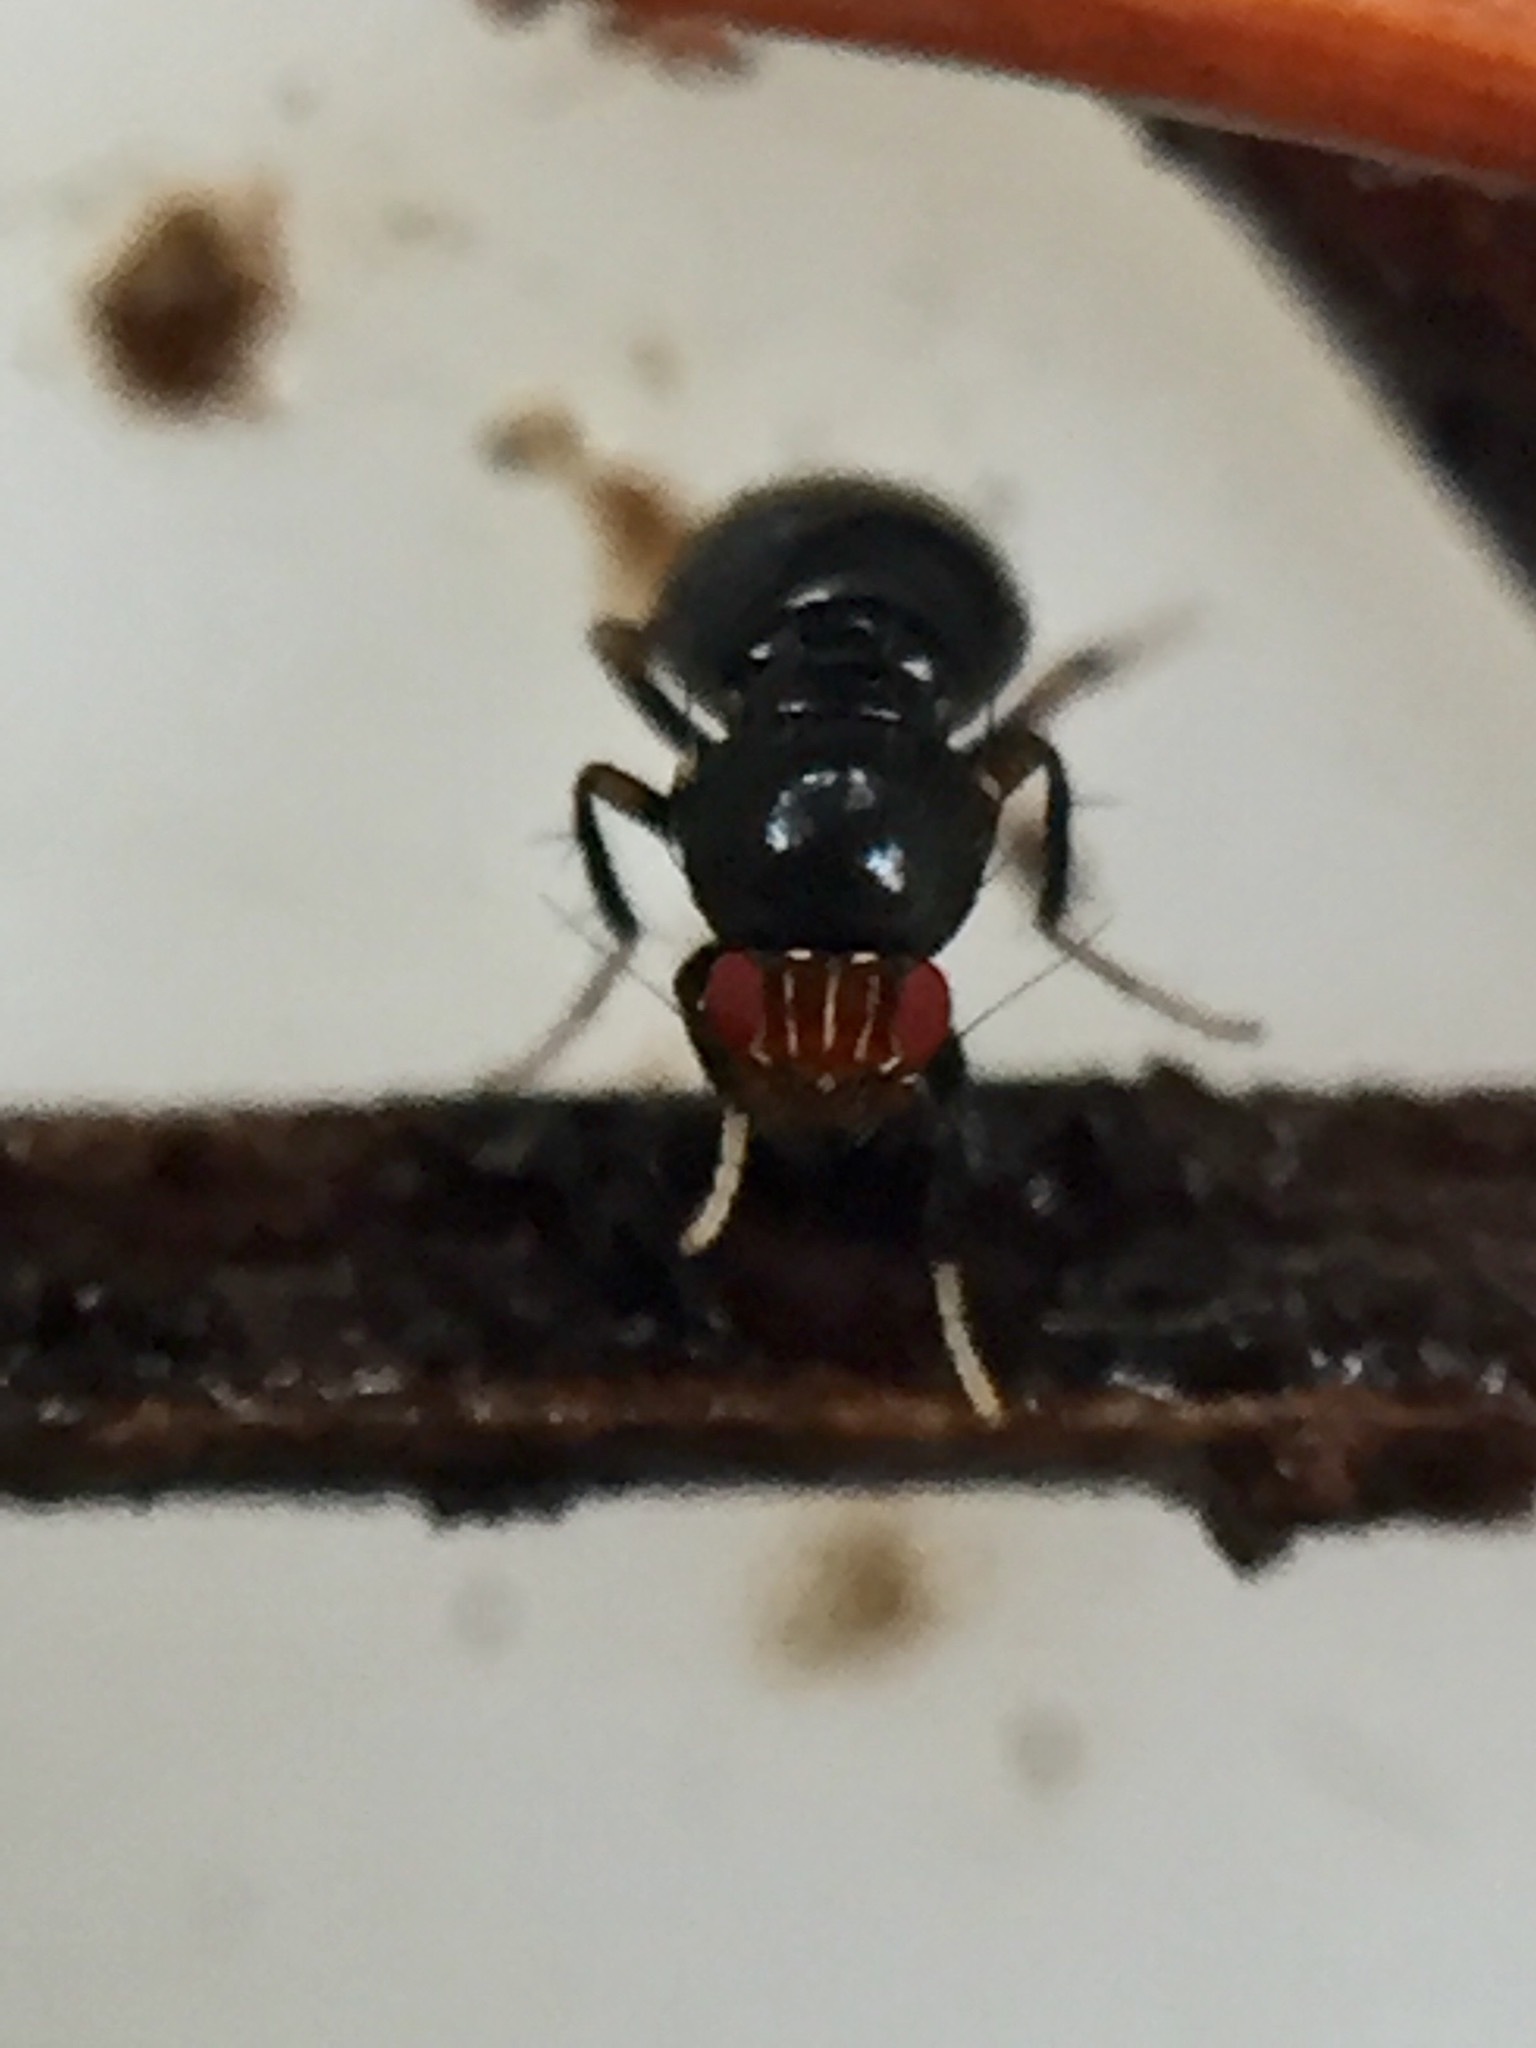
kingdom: Animalia
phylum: Arthropoda
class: Insecta
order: Diptera
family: Sphaeroceridae
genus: Howickia
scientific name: Howickia trilineata
